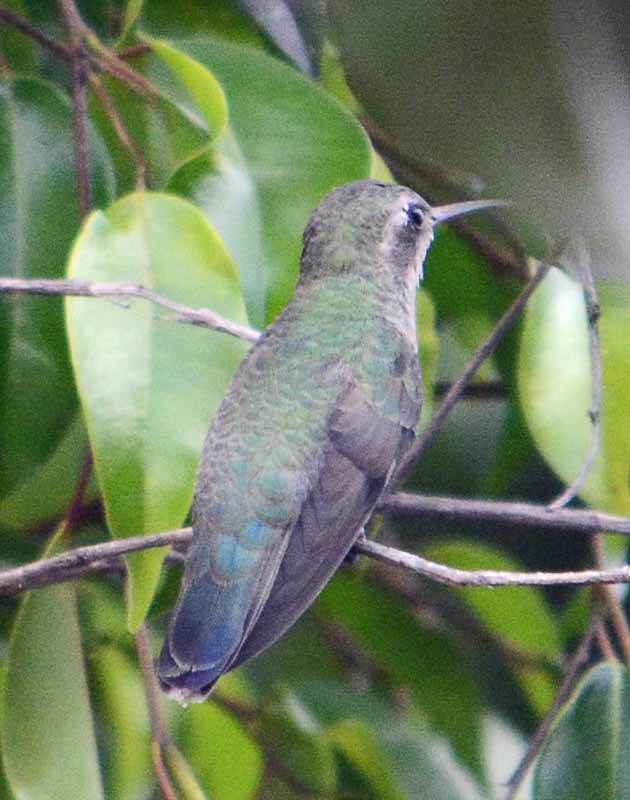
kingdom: Animalia
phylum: Chordata
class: Aves
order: Apodiformes
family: Trochilidae
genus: Cynanthus
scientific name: Cynanthus latirostris
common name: Broad-billed hummingbird
